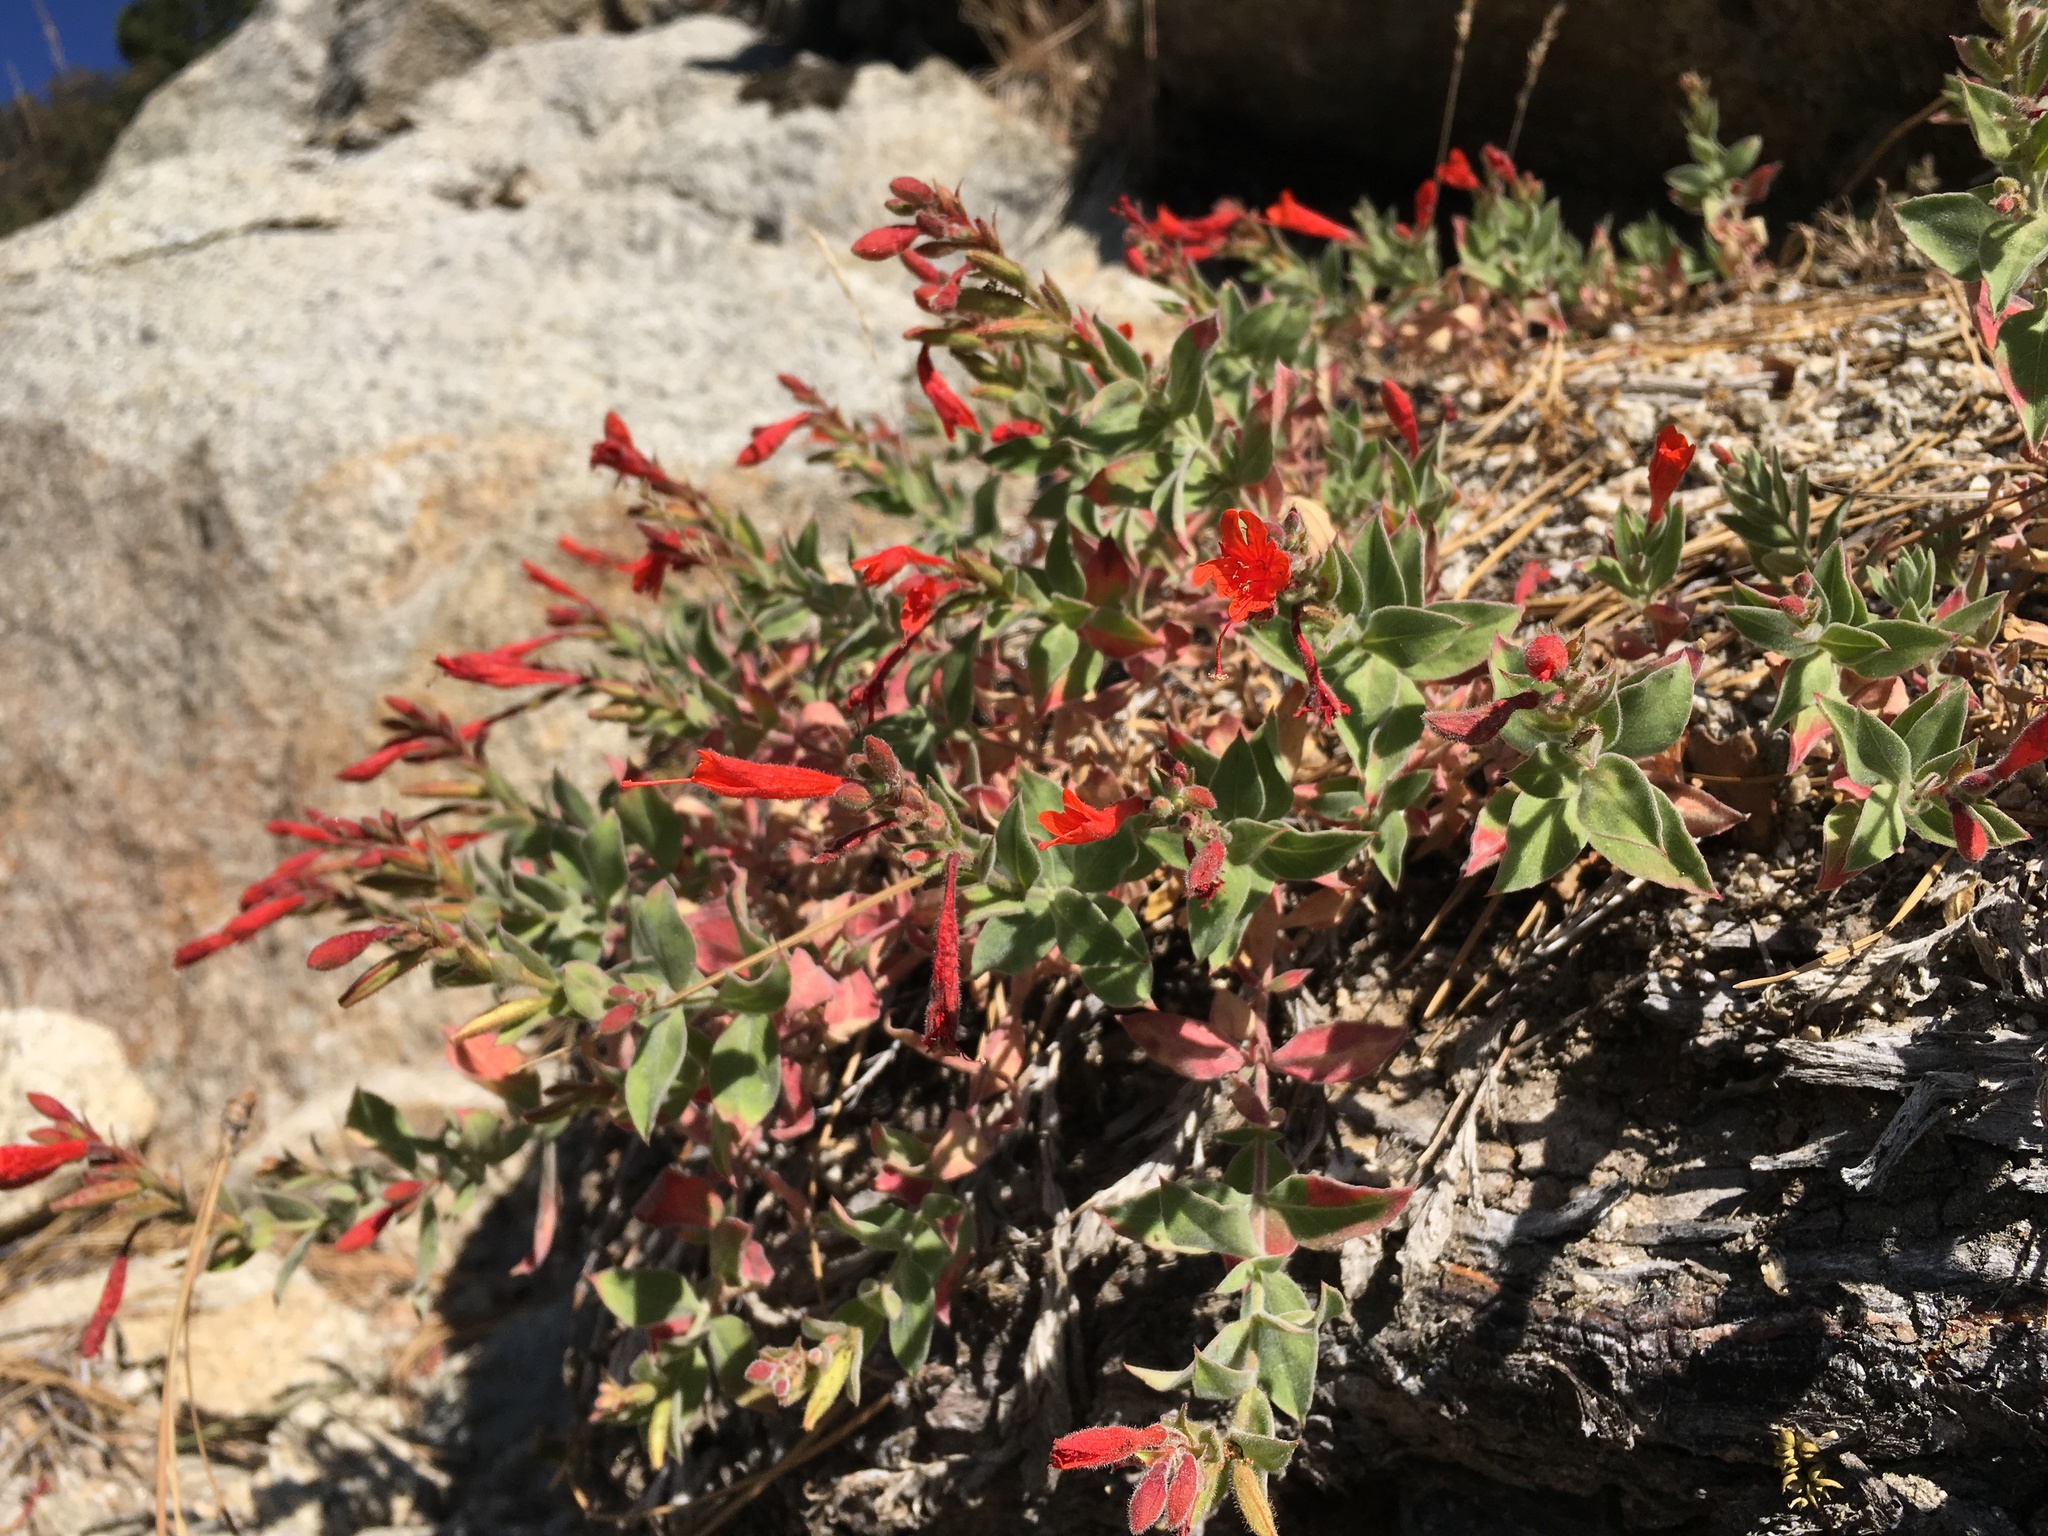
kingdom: Plantae
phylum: Tracheophyta
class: Magnoliopsida
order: Myrtales
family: Onagraceae
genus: Epilobium
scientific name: Epilobium canum
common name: California-fuchsia
